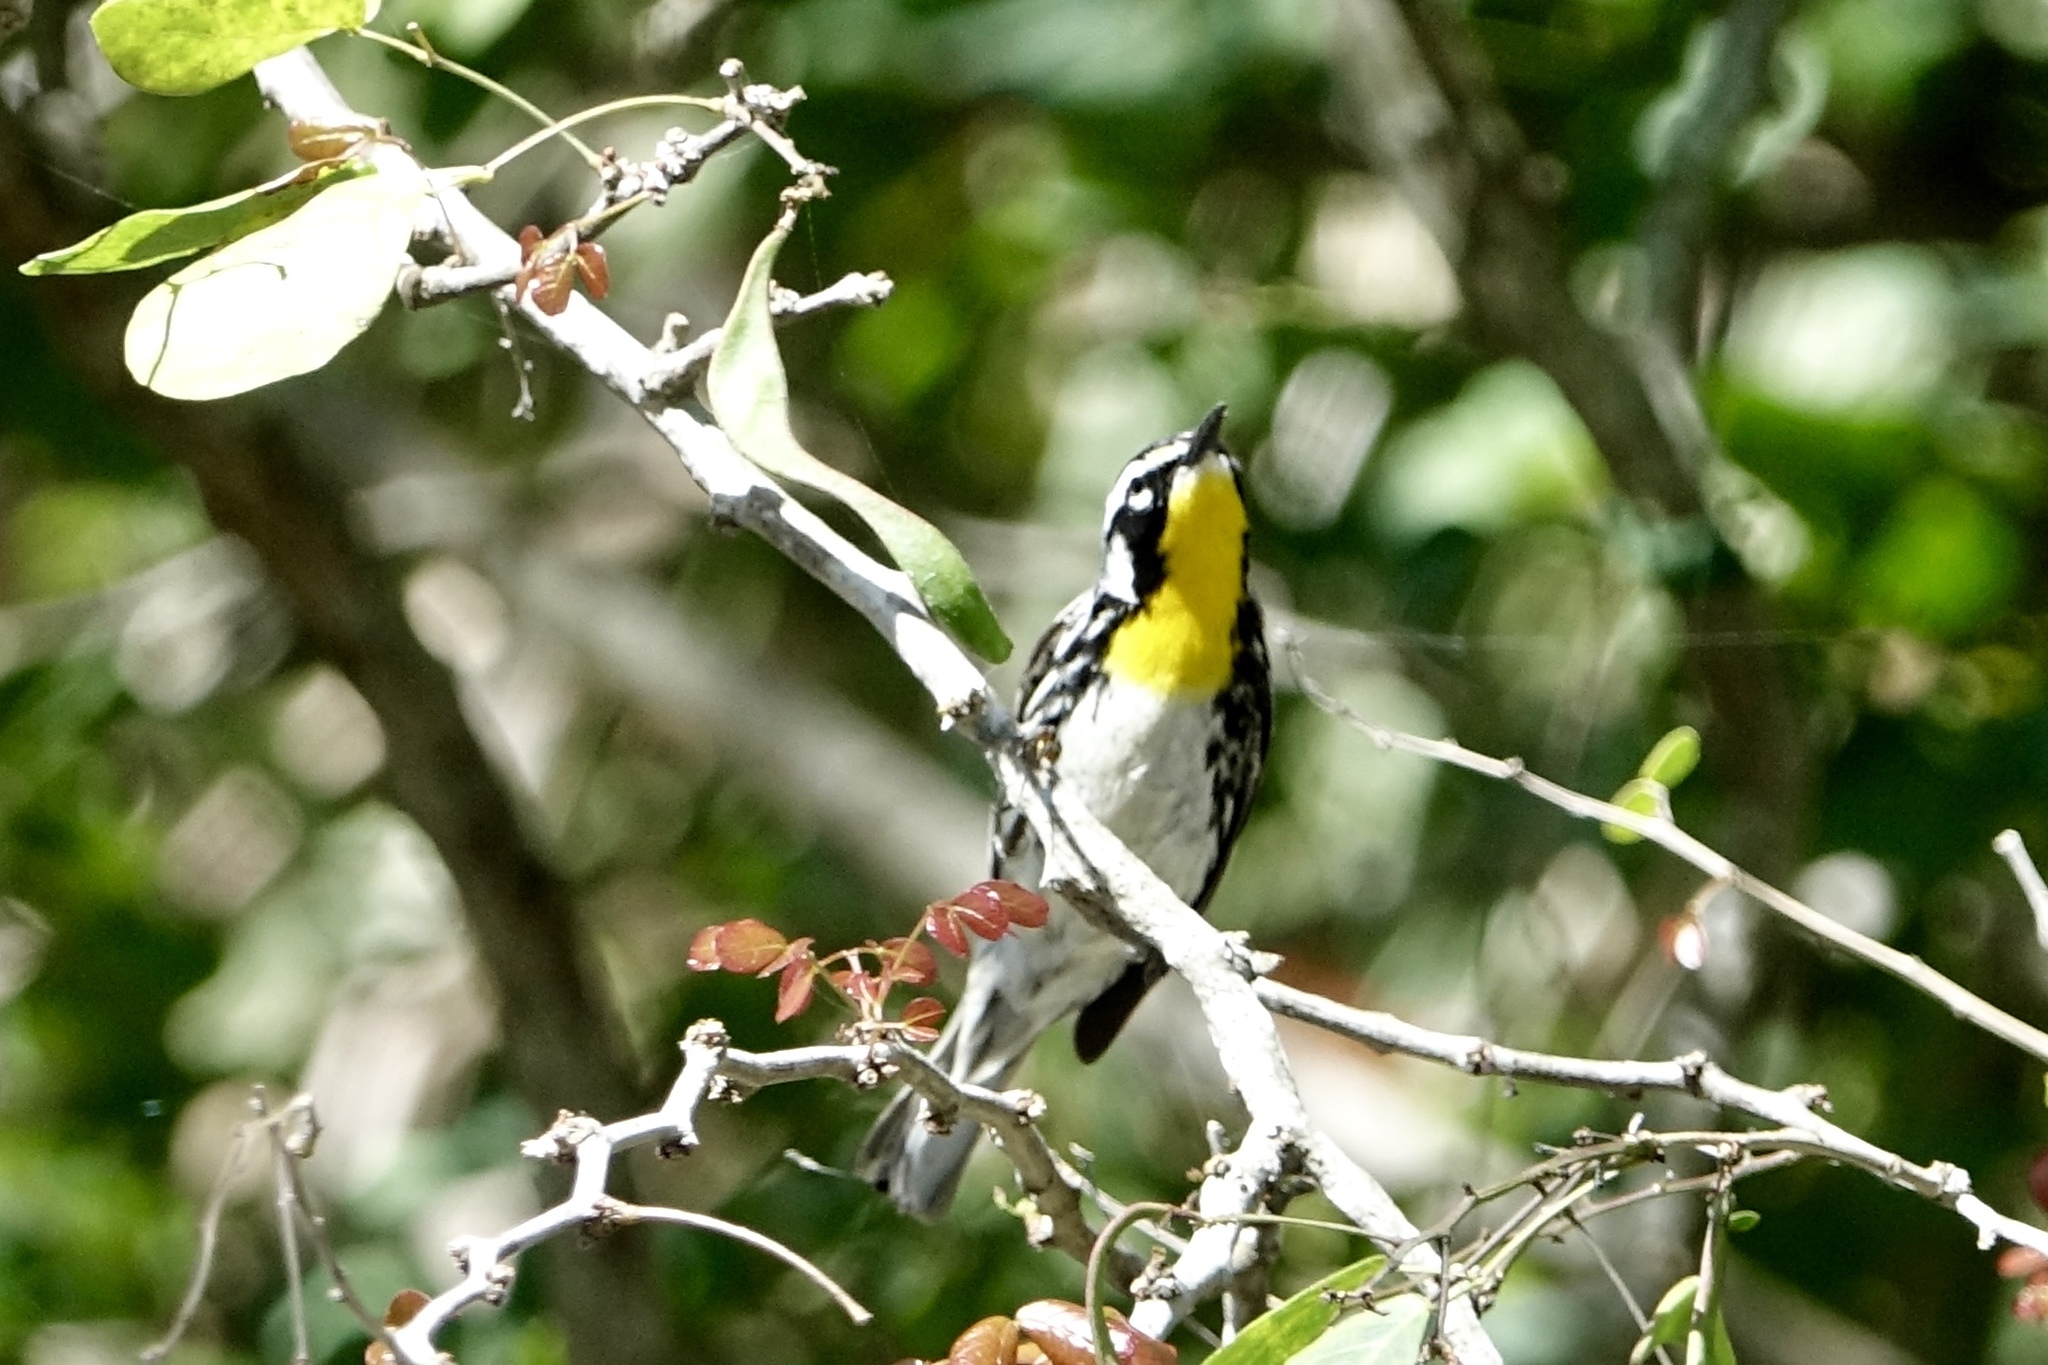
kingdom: Animalia
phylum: Chordata
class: Aves
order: Passeriformes
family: Parulidae
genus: Setophaga
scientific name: Setophaga dominica
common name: Yellow-throated warbler
